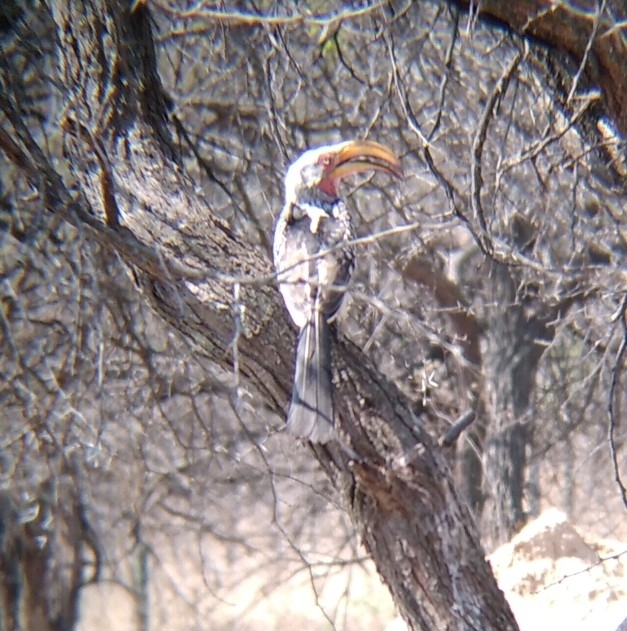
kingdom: Animalia
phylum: Chordata
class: Aves
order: Bucerotiformes
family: Bucerotidae
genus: Tockus
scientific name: Tockus leucomelas
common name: Southern yellow-billed hornbill
